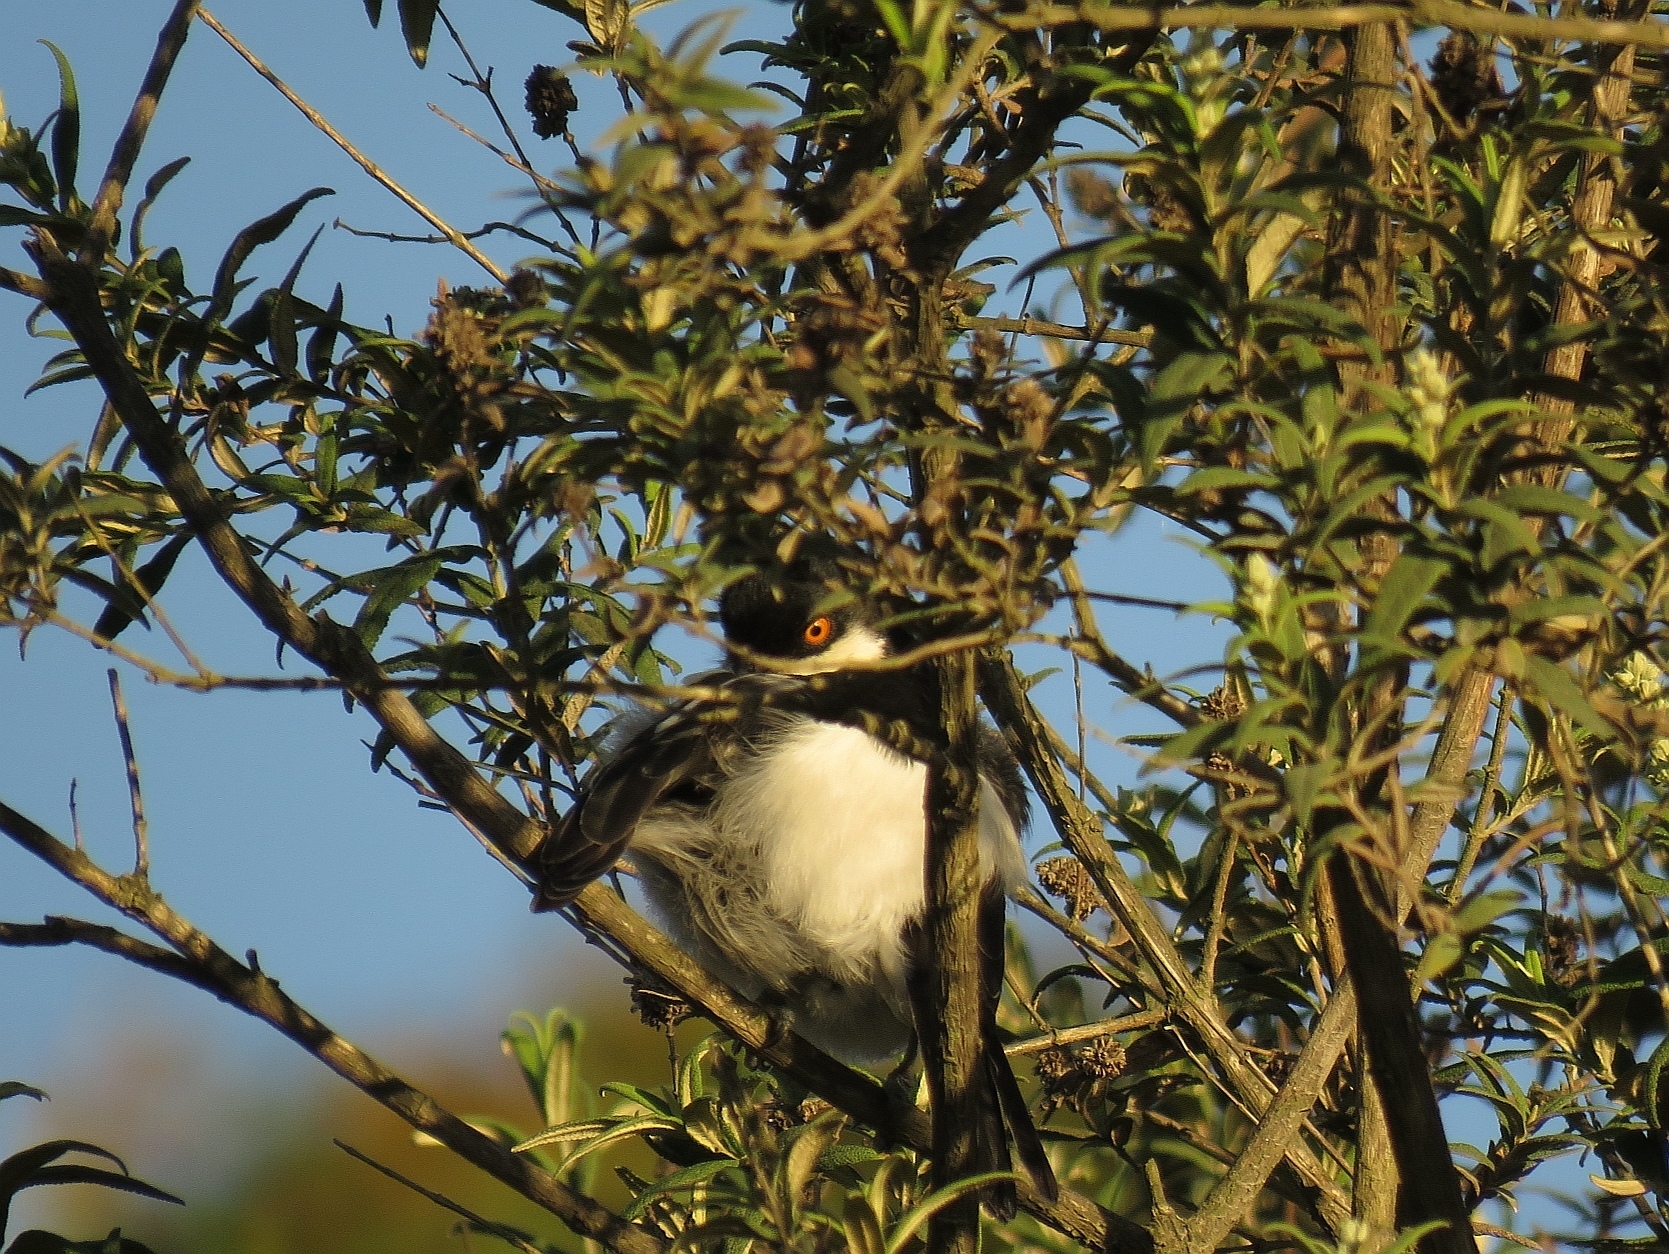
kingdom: Animalia
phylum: Chordata
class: Aves
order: Passeriformes
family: Malaconotidae
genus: Dryoscopus
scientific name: Dryoscopus cubla
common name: Black-backed puffback
